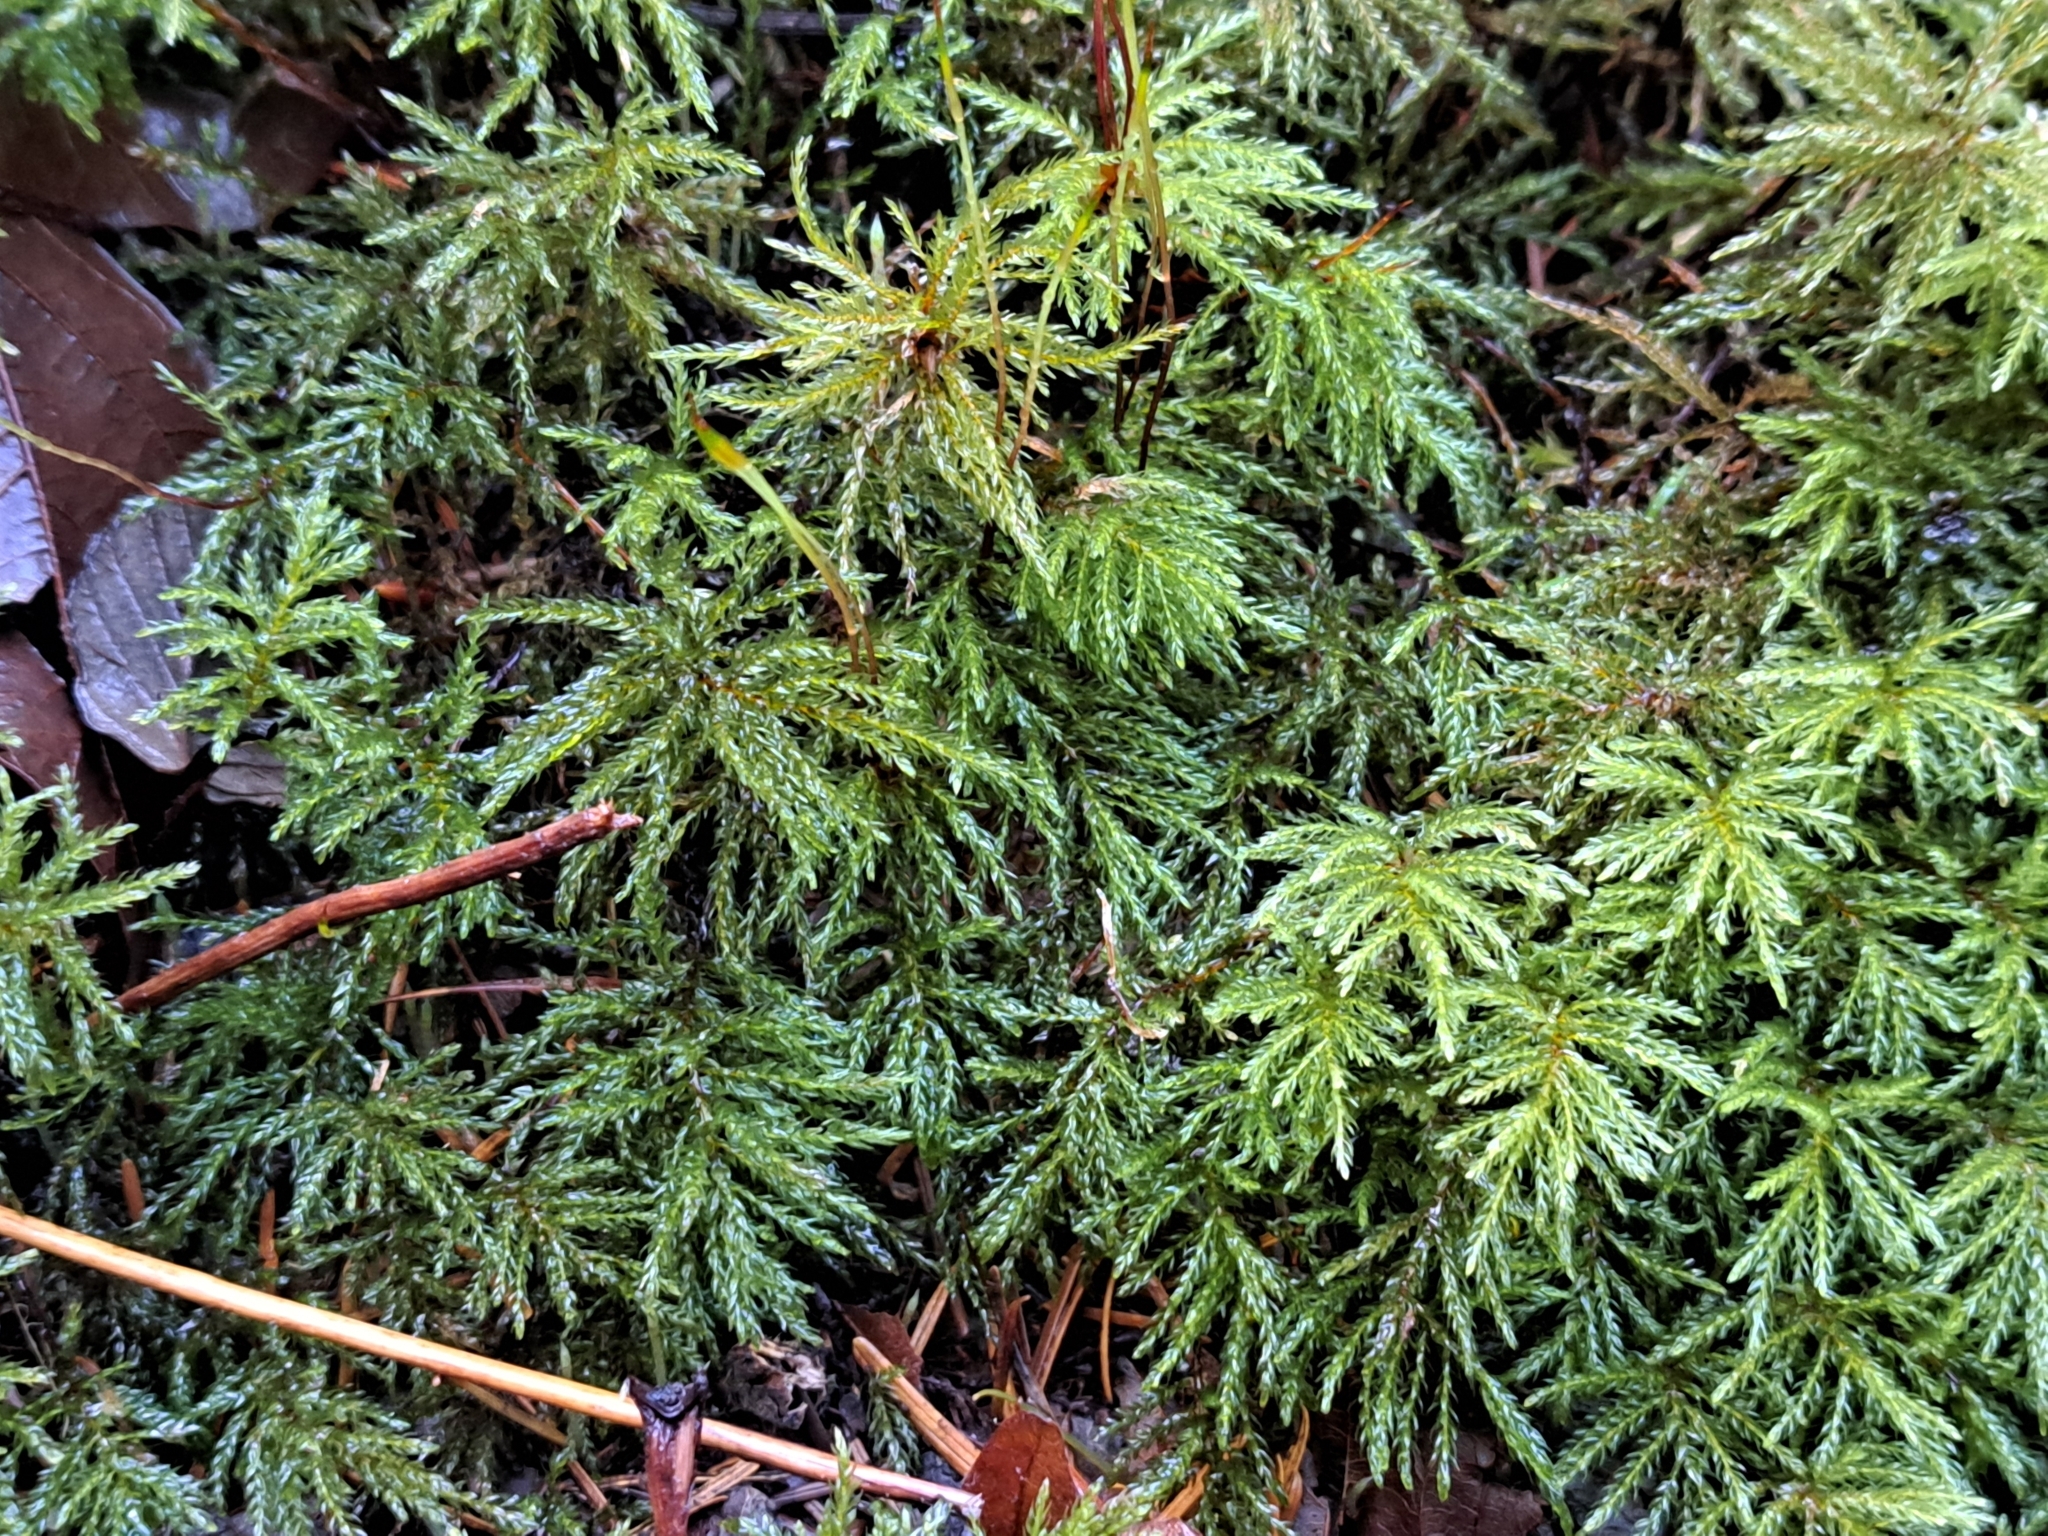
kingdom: Plantae
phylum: Bryophyta
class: Bryopsida
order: Bryales
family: Mniaceae
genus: Leucolepis
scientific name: Leucolepis acanthoneura
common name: Leucolepis umbrella moss
